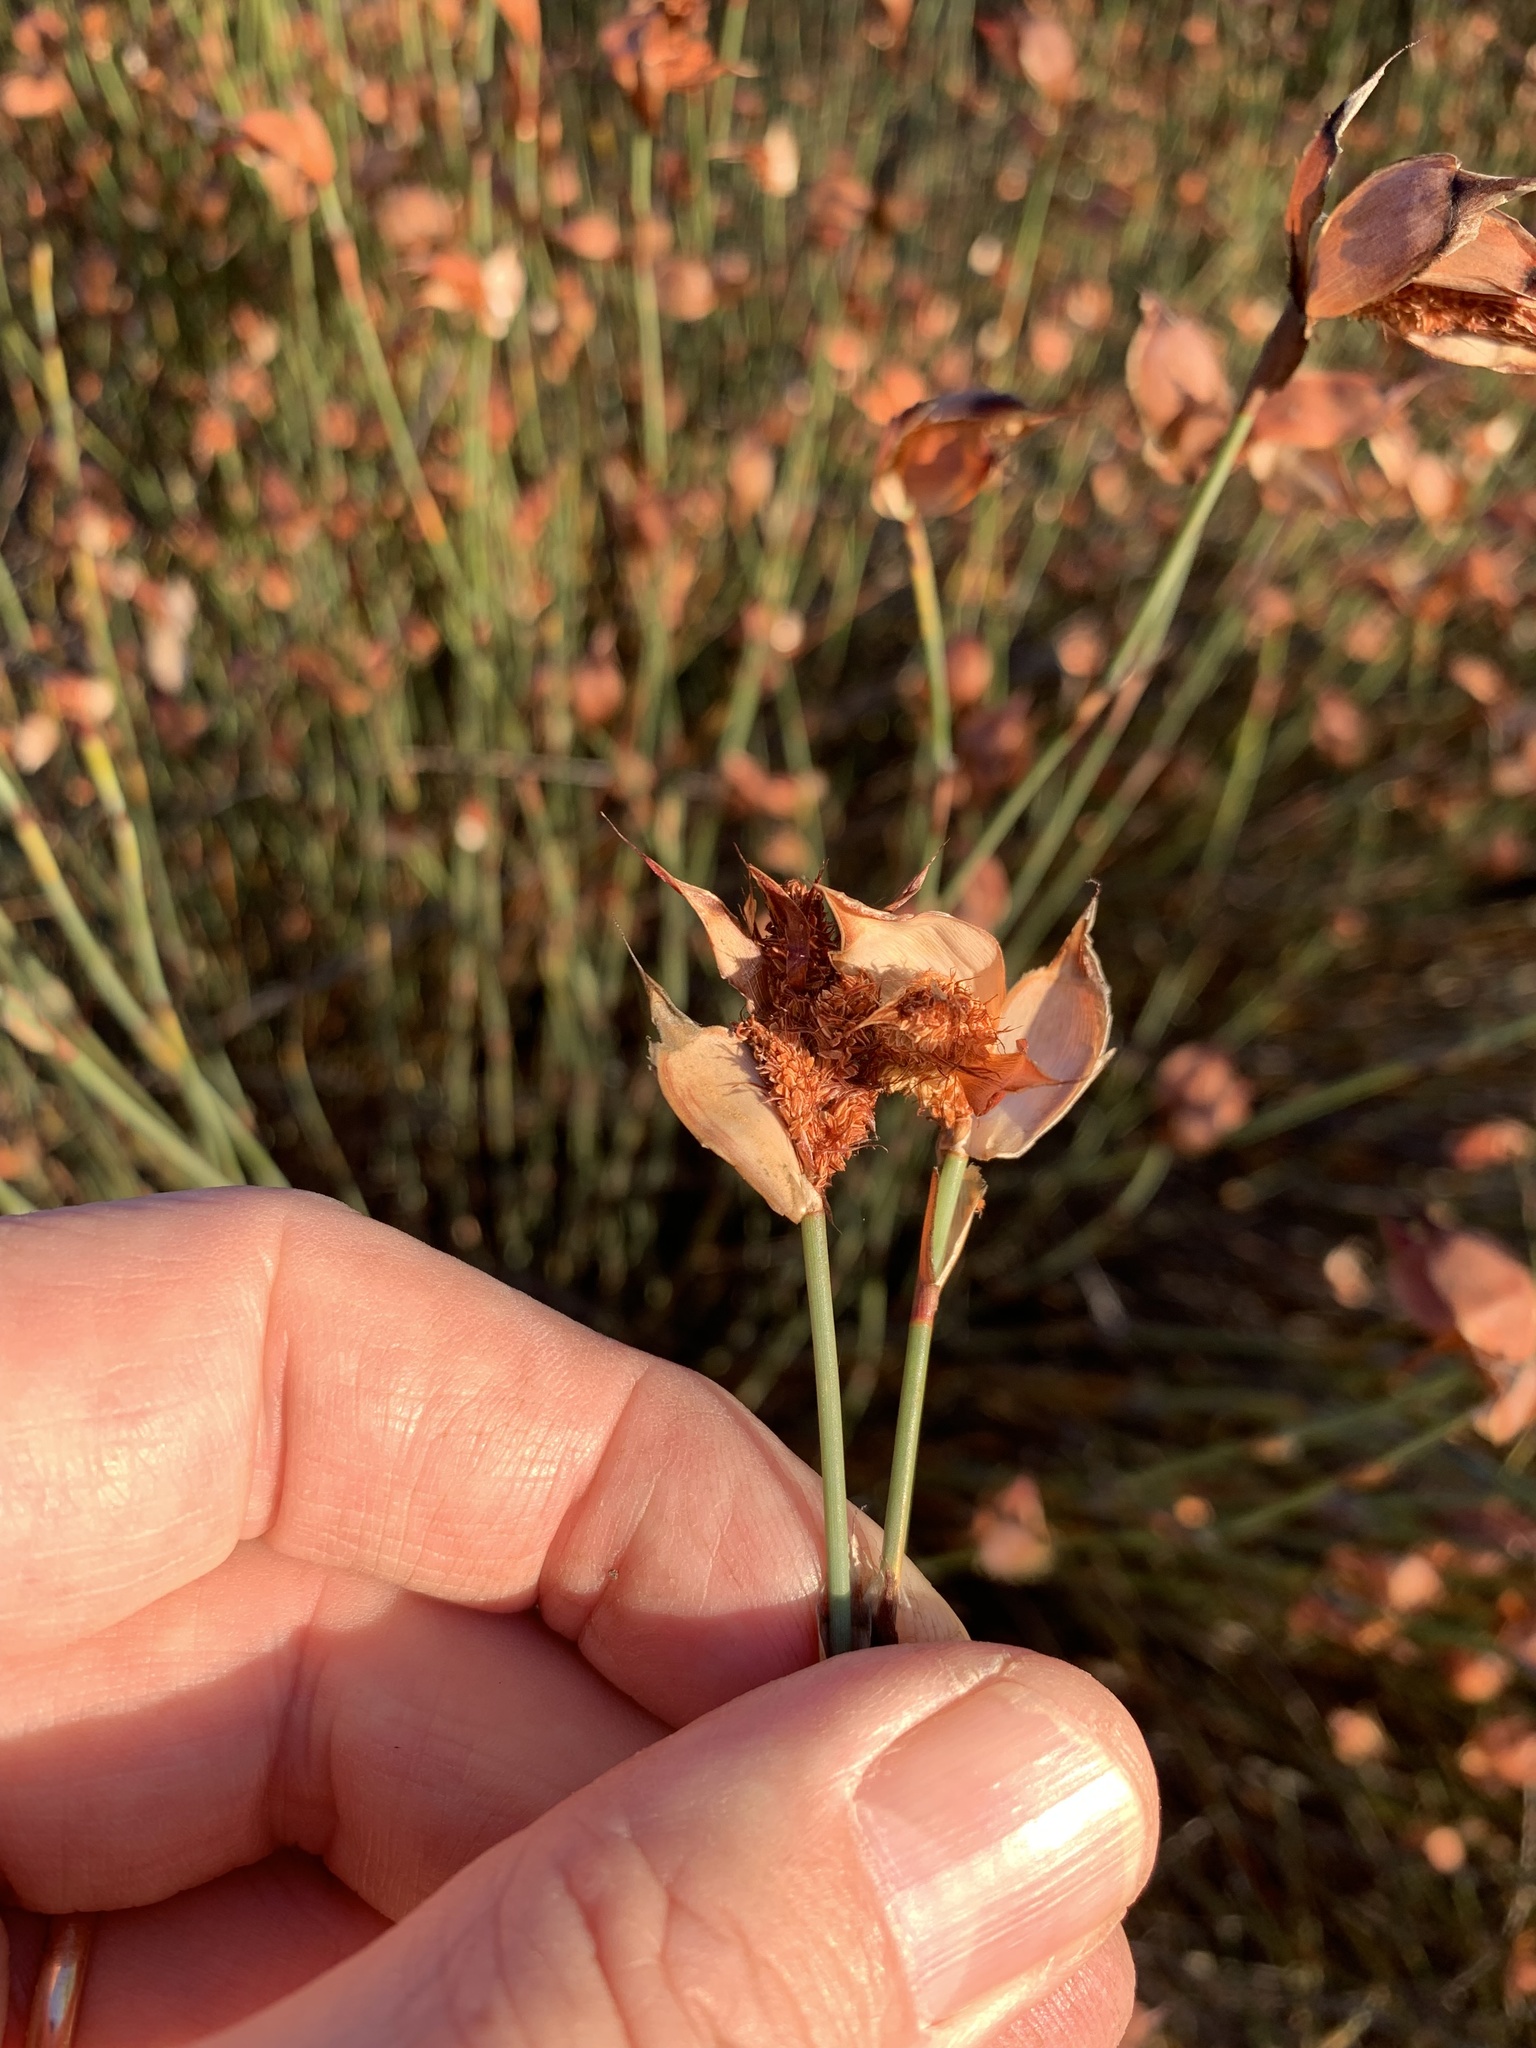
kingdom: Plantae
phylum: Tracheophyta
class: Liliopsida
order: Poales
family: Restionaceae
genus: Willdenowia
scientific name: Willdenowia incurvata
